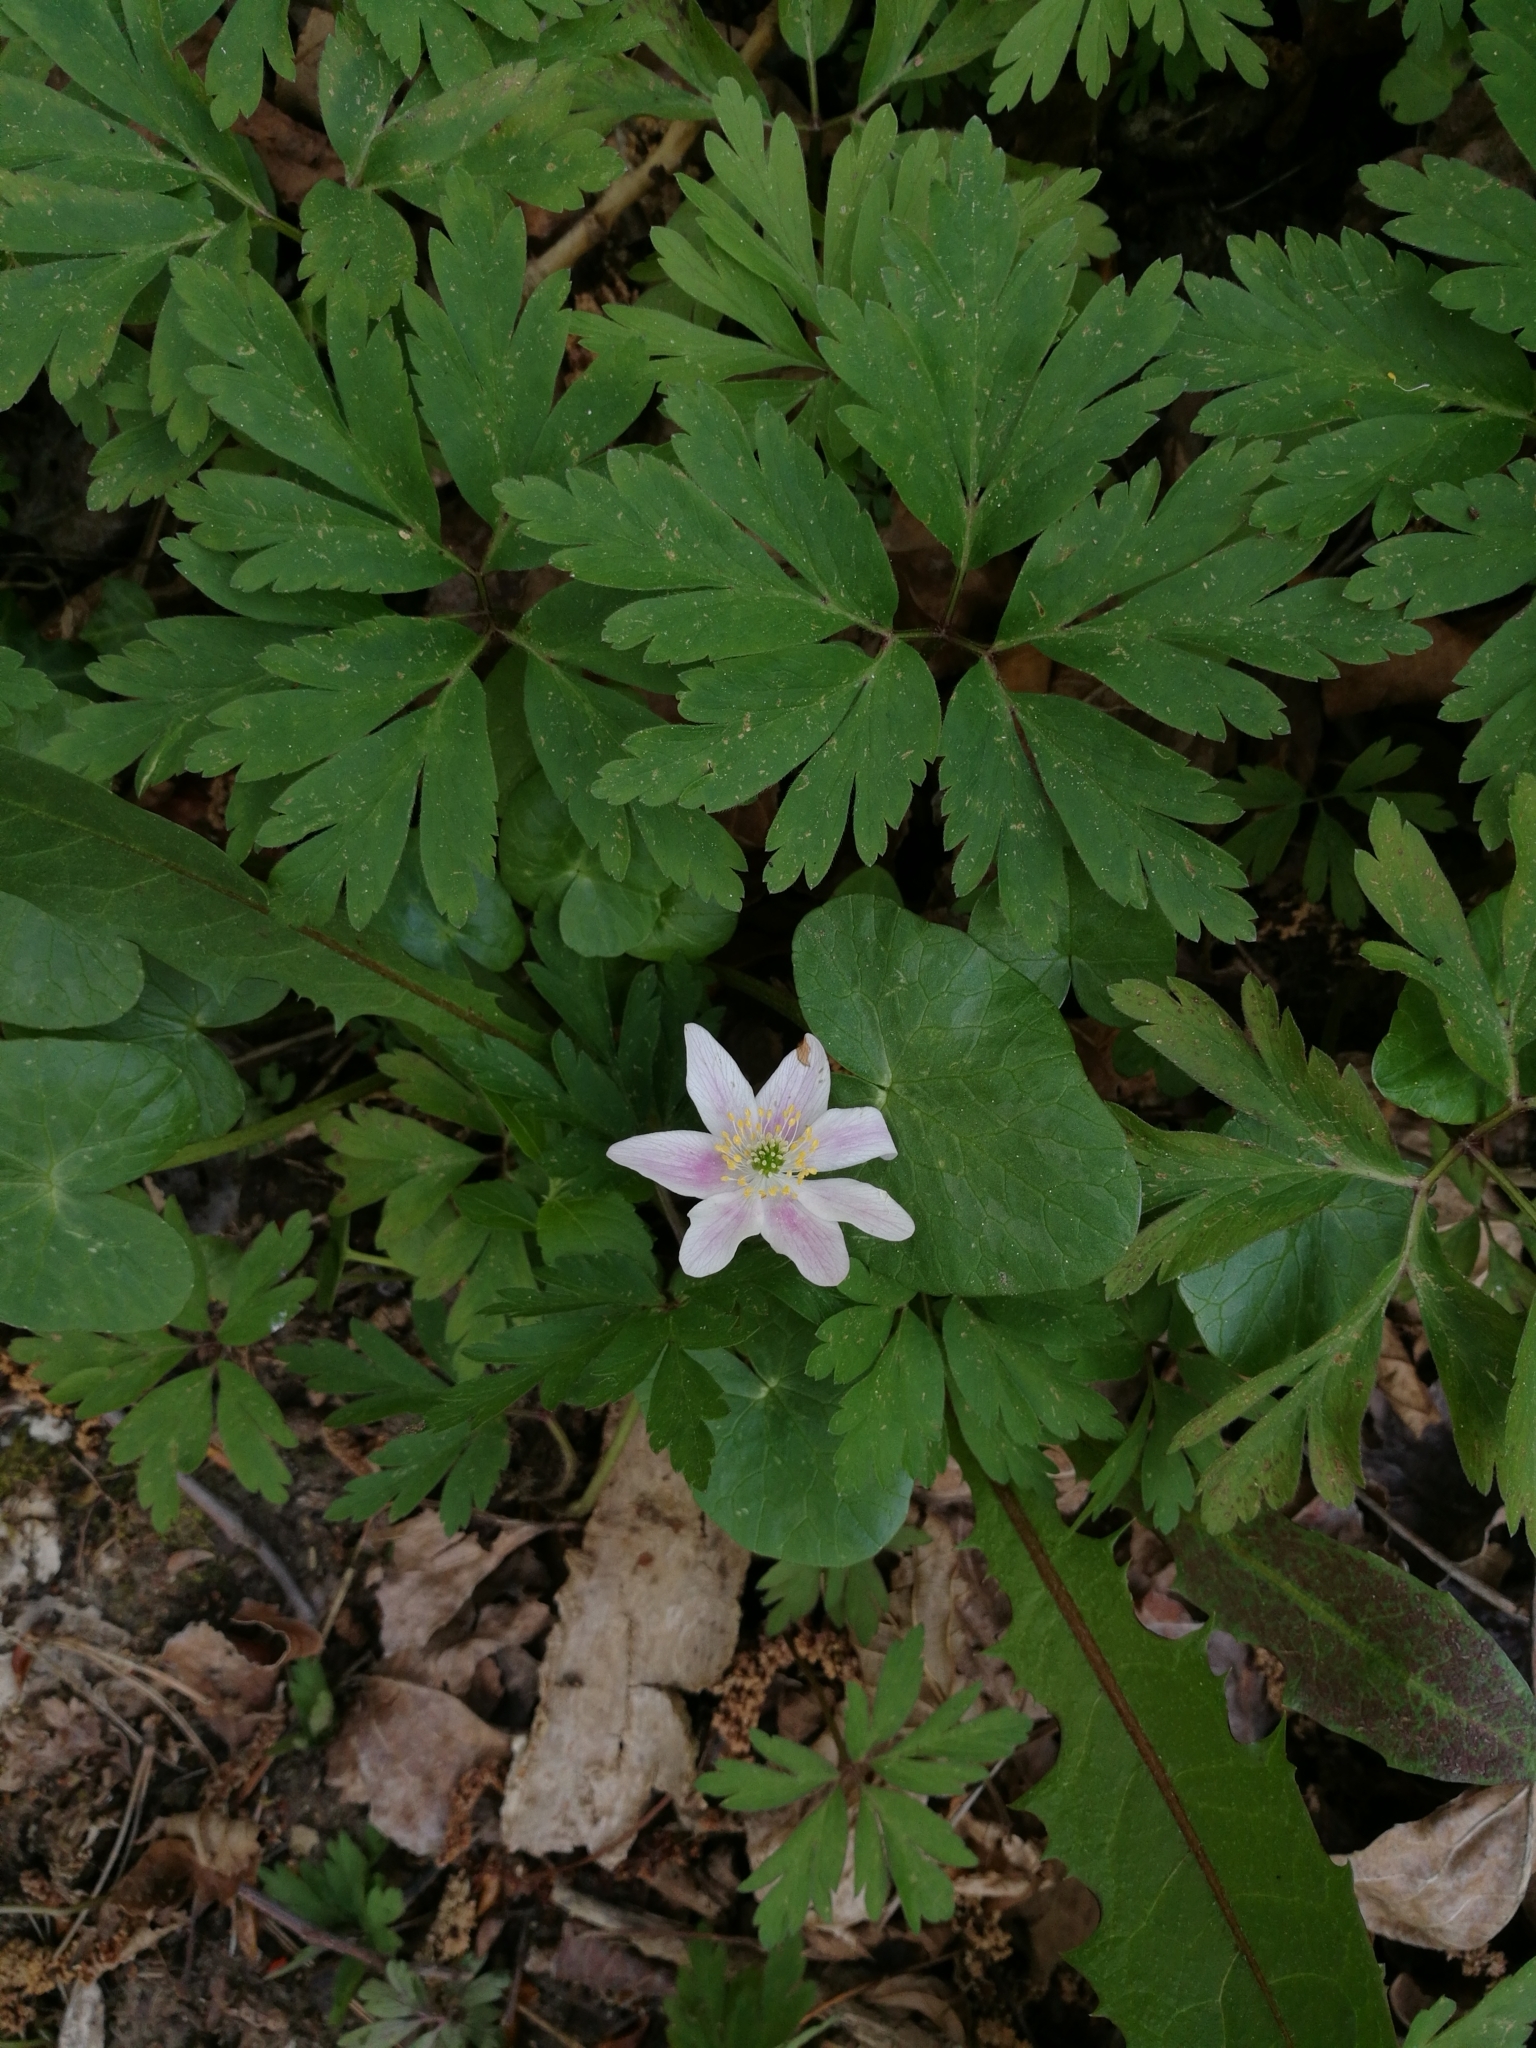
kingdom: Plantae
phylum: Tracheophyta
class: Magnoliopsida
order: Ranunculales
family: Ranunculaceae
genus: Anemone
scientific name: Anemone nemorosa
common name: Wood anemone
